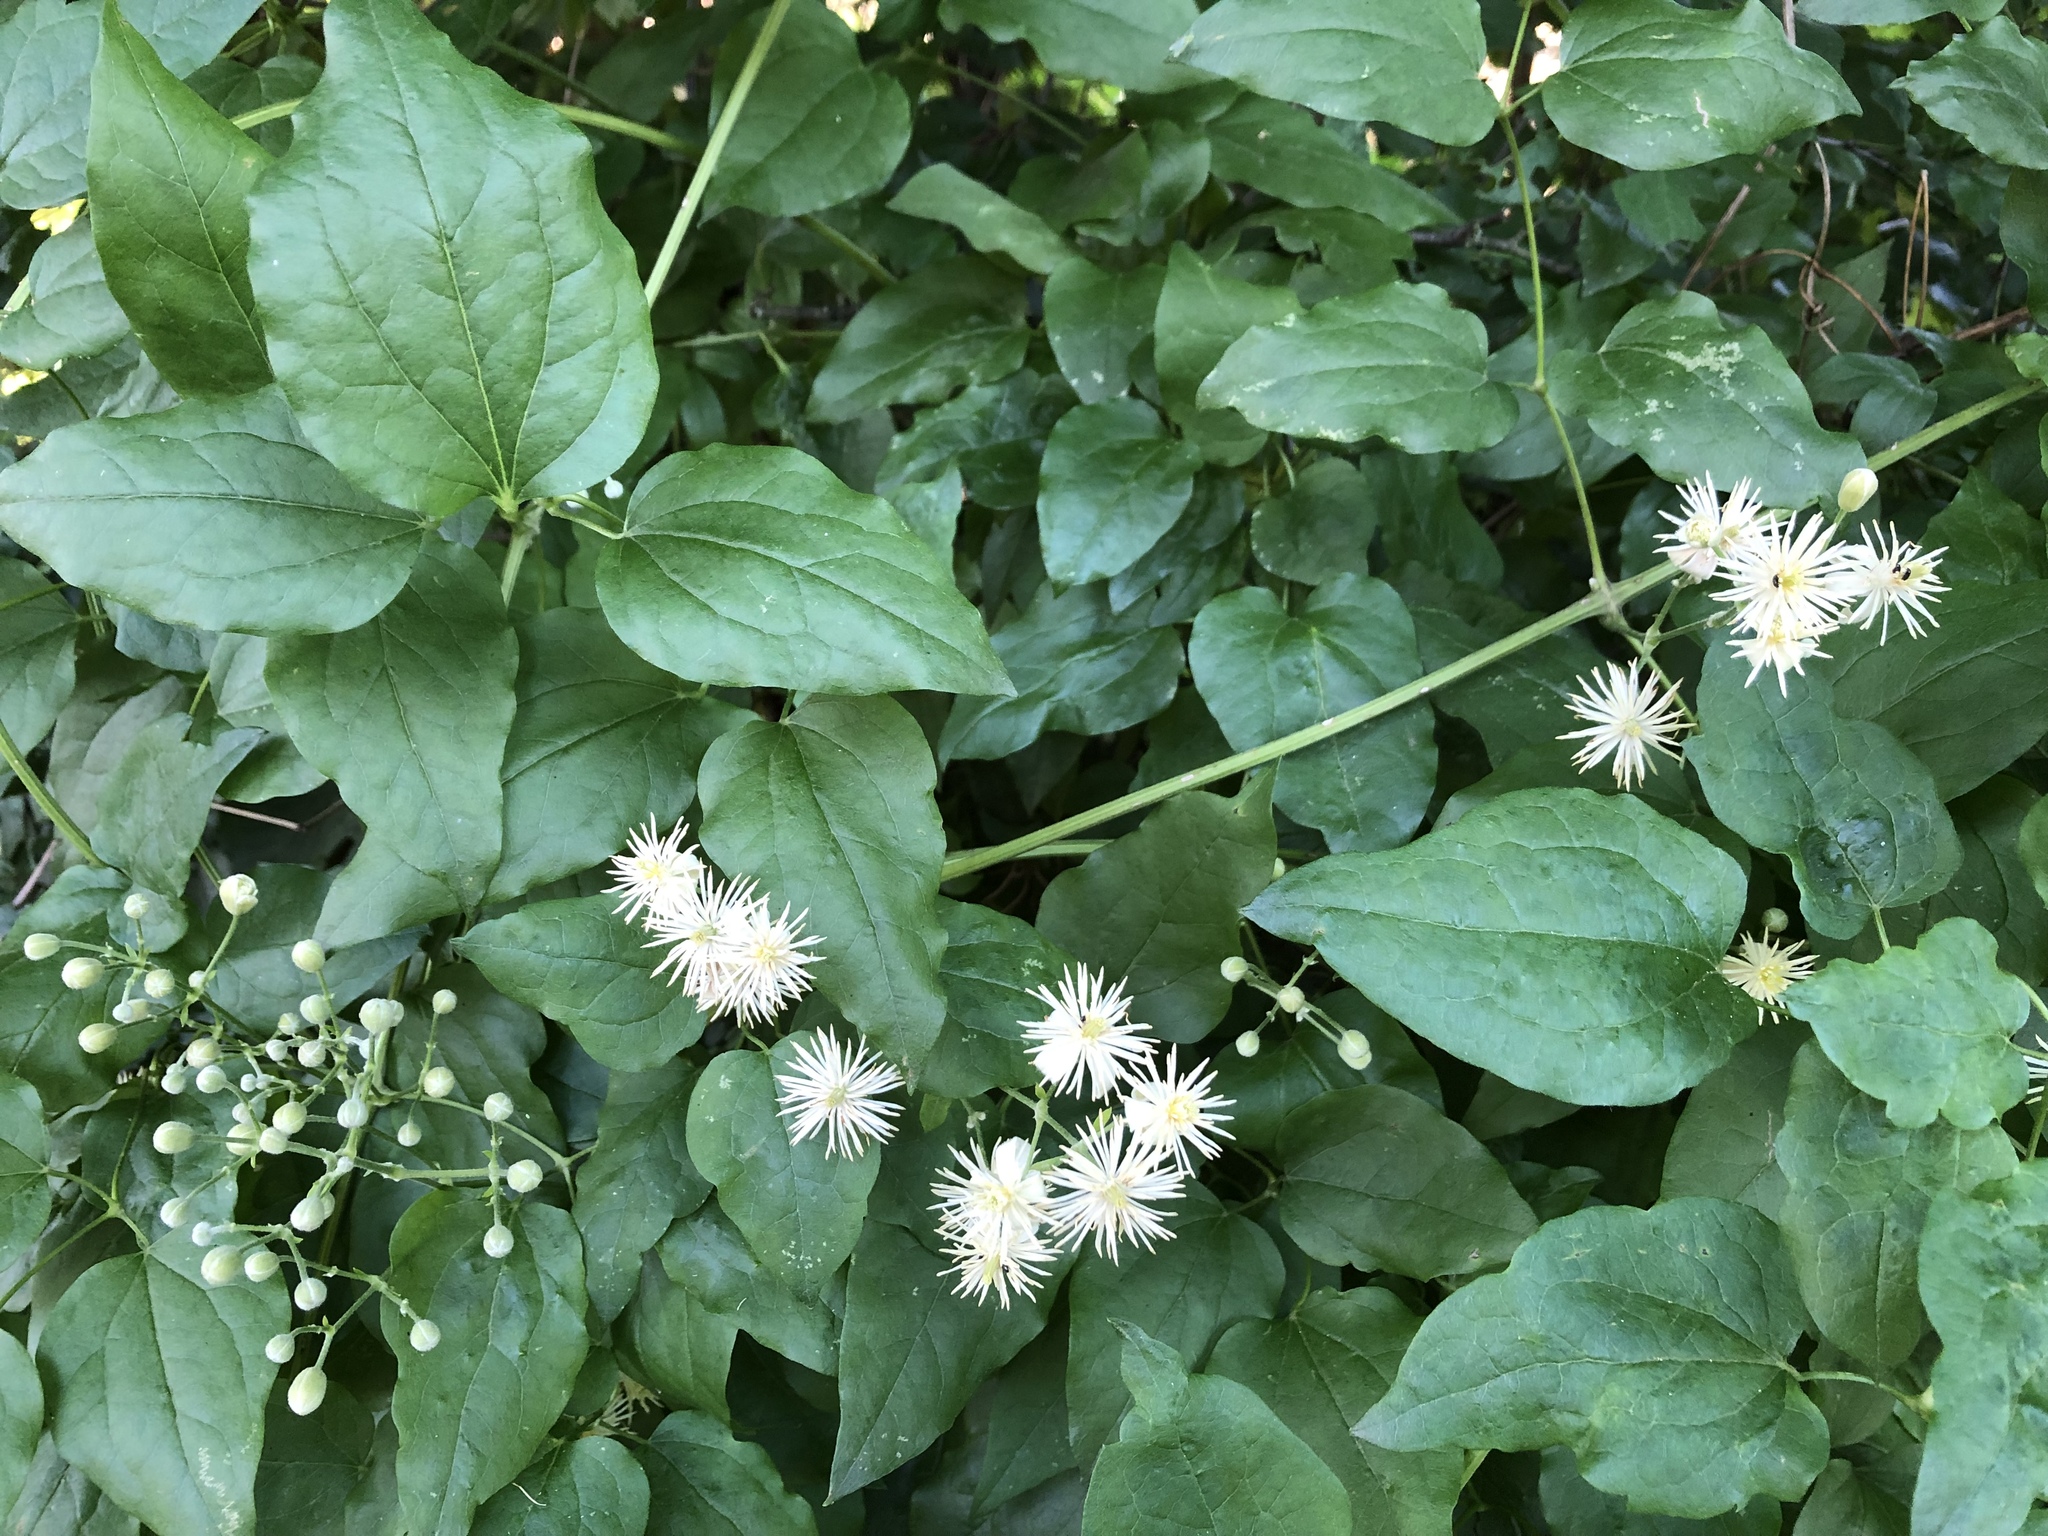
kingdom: Plantae
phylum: Tracheophyta
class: Magnoliopsida
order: Ranunculales
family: Ranunculaceae
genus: Clematis
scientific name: Clematis vitalba
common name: Evergreen clematis
